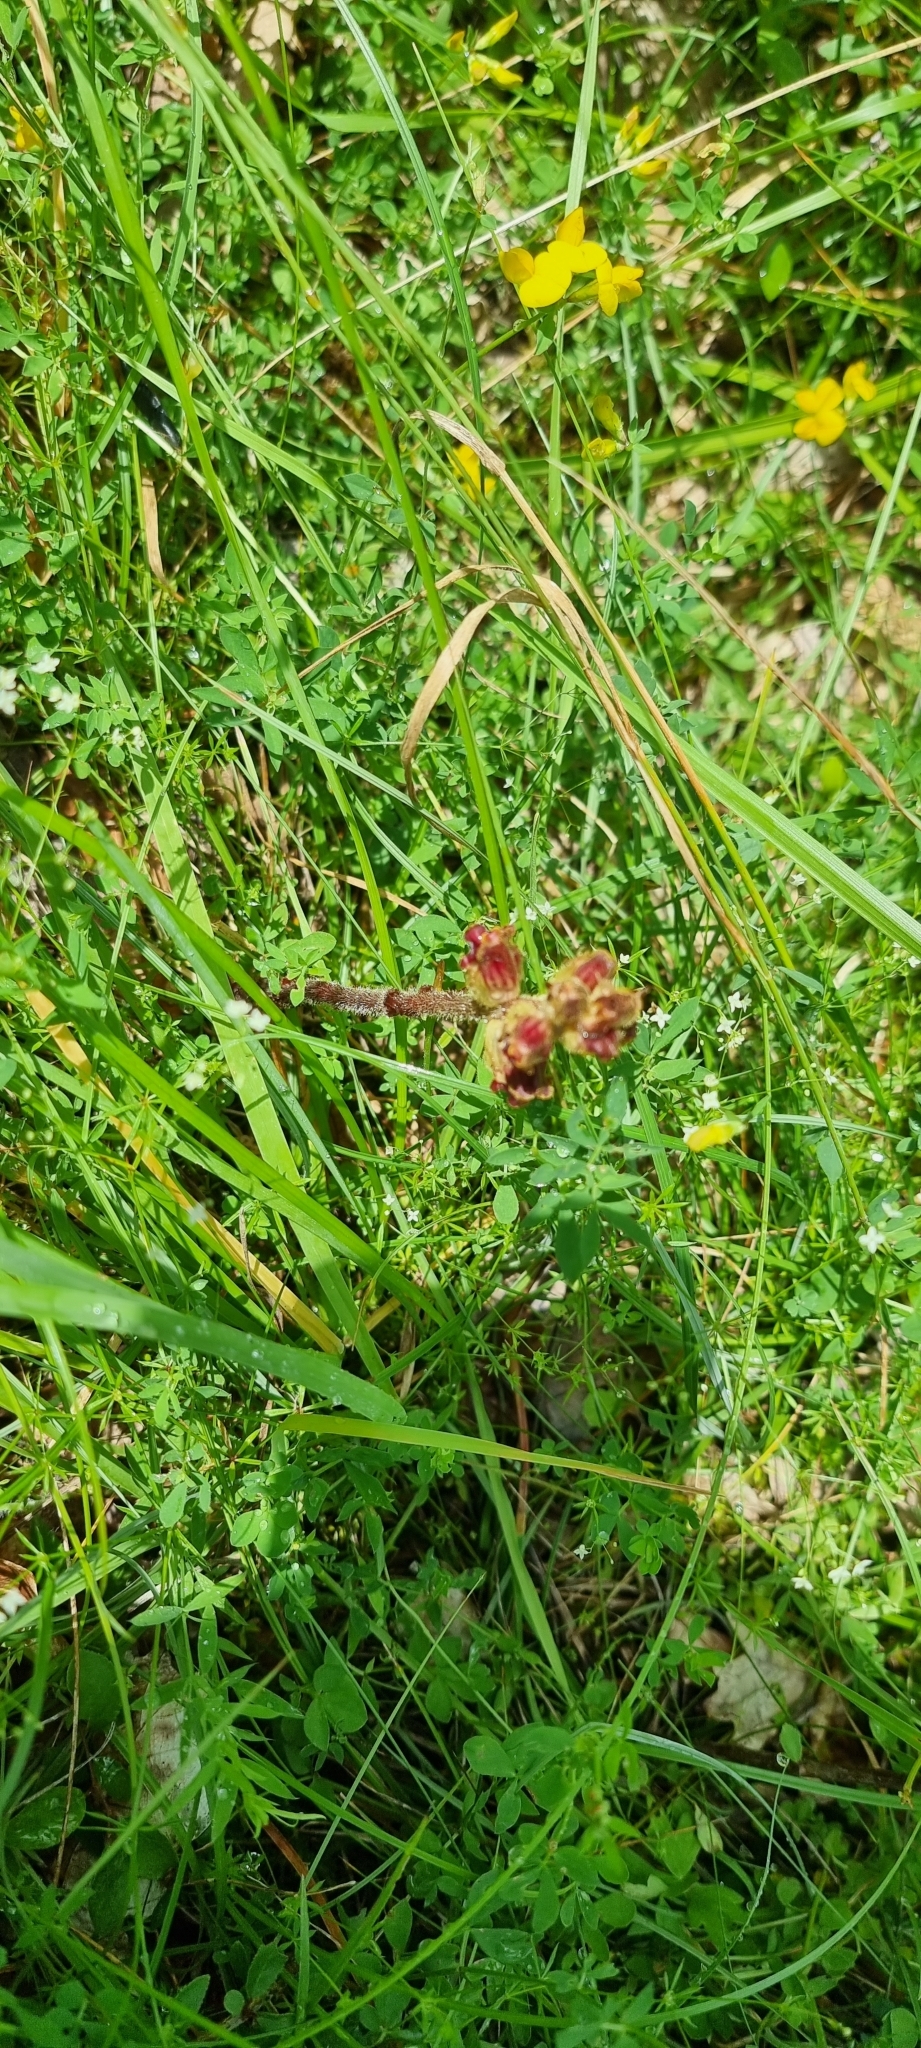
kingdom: Plantae
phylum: Tracheophyta
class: Magnoliopsida
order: Lamiales
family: Orobanchaceae
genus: Orobanche
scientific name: Orobanche gracilis
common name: Slender broomrape
